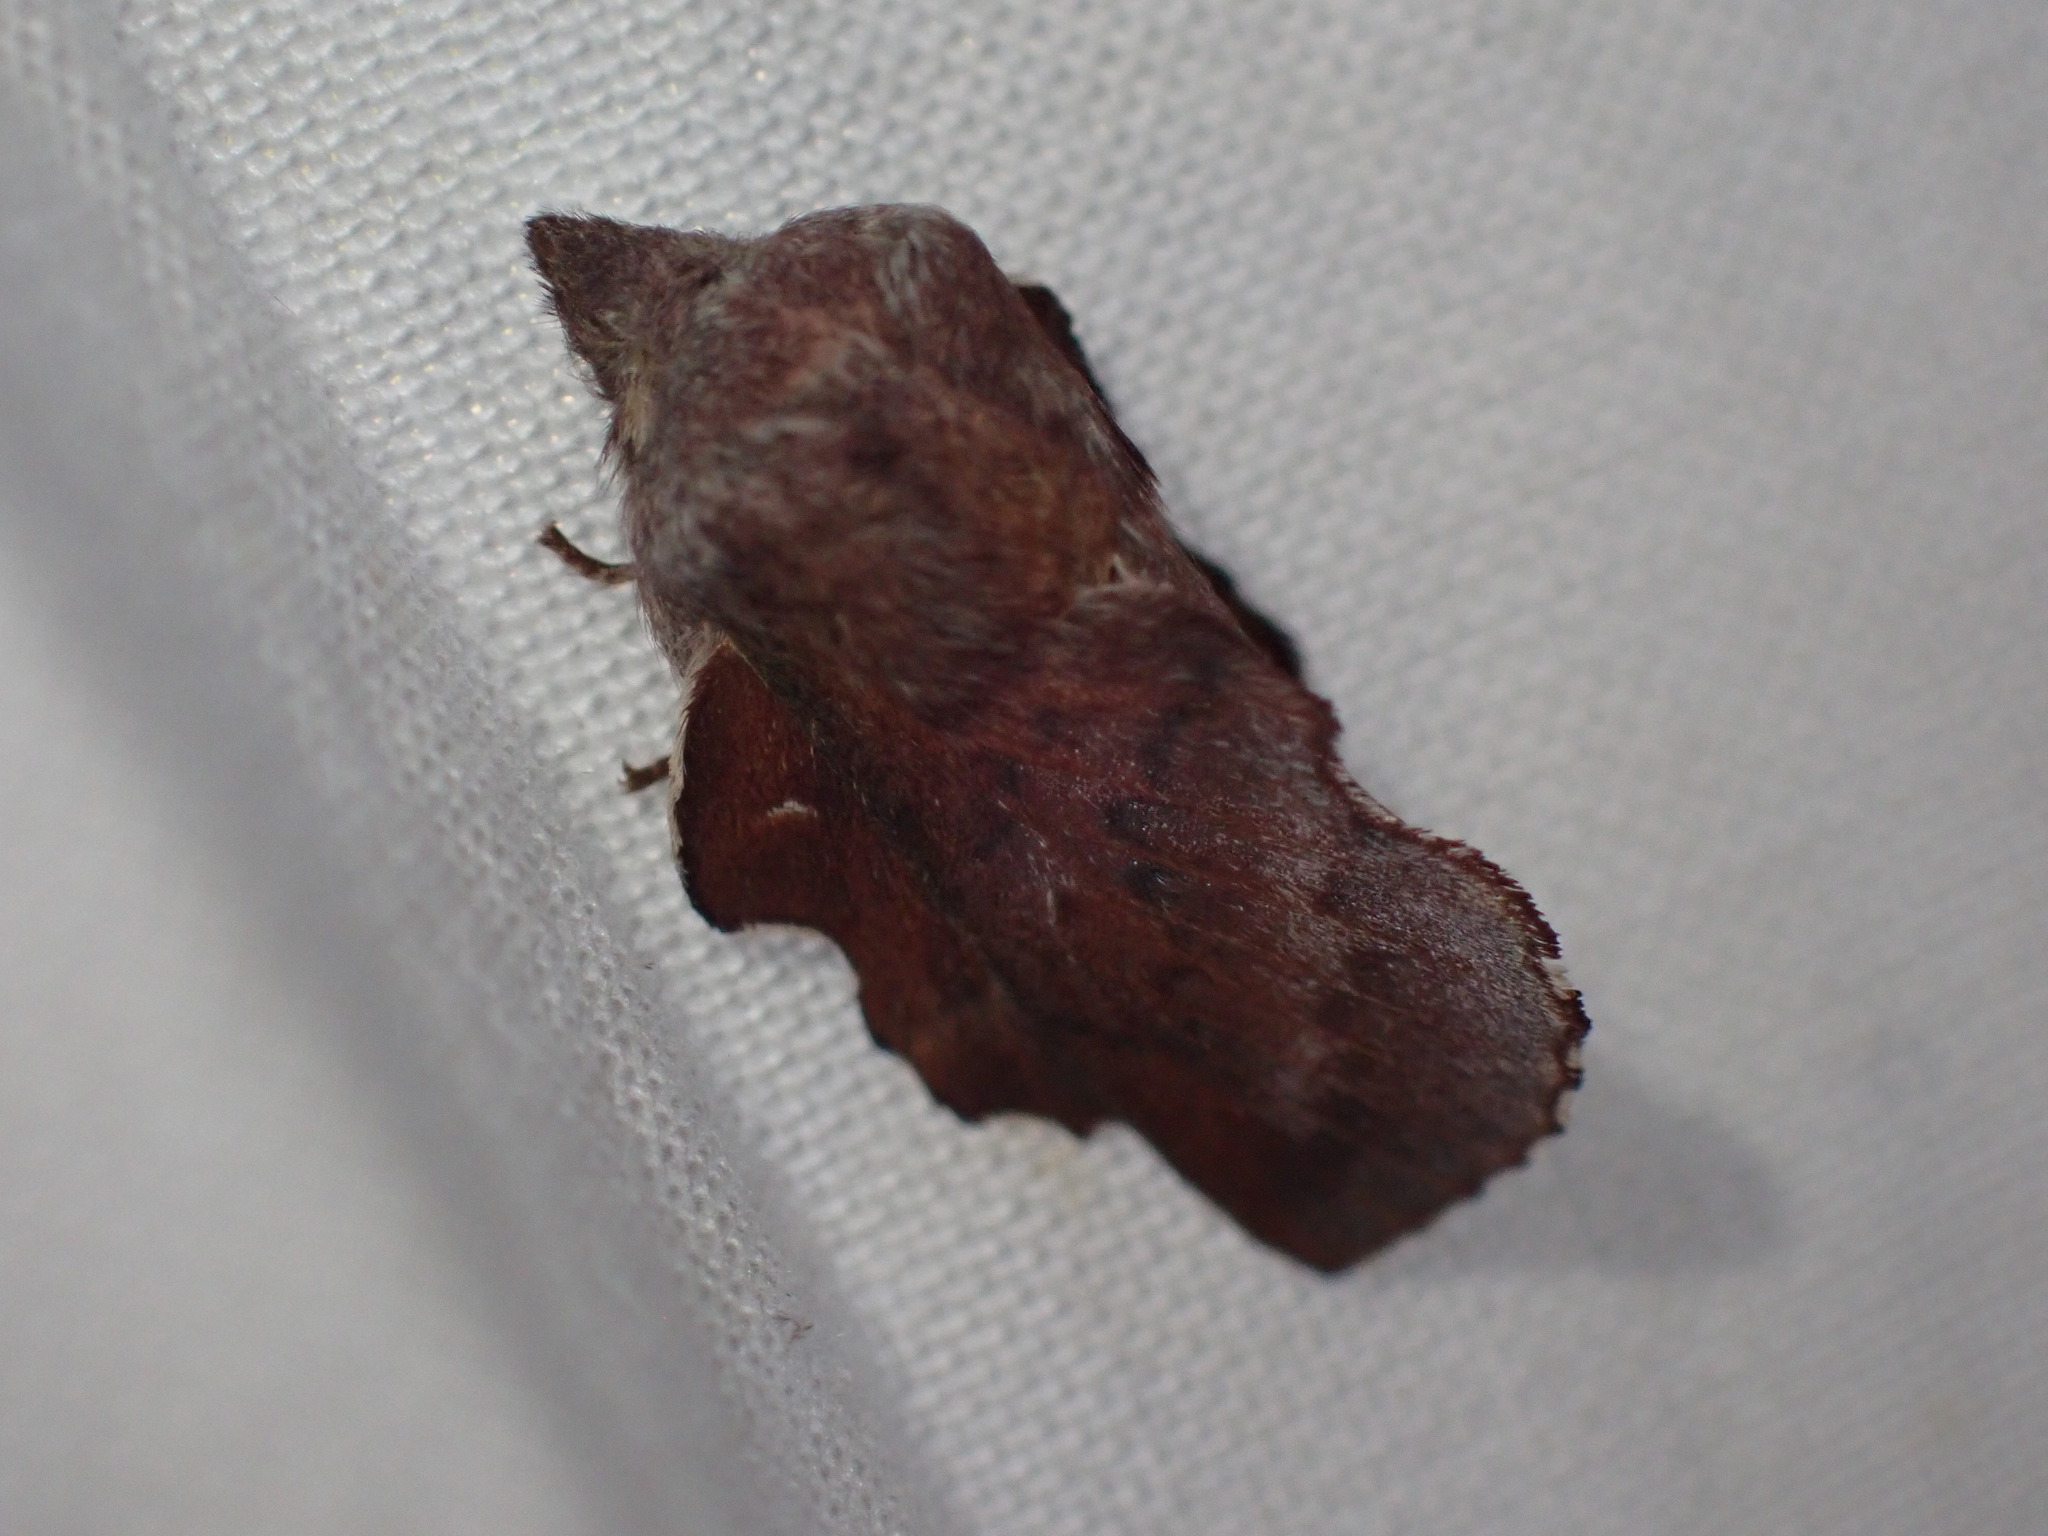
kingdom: Animalia
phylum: Arthropoda
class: Insecta
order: Lepidoptera
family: Lasiocampidae
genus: Phyllodesma
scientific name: Phyllodesma americana
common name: American lappet moth
